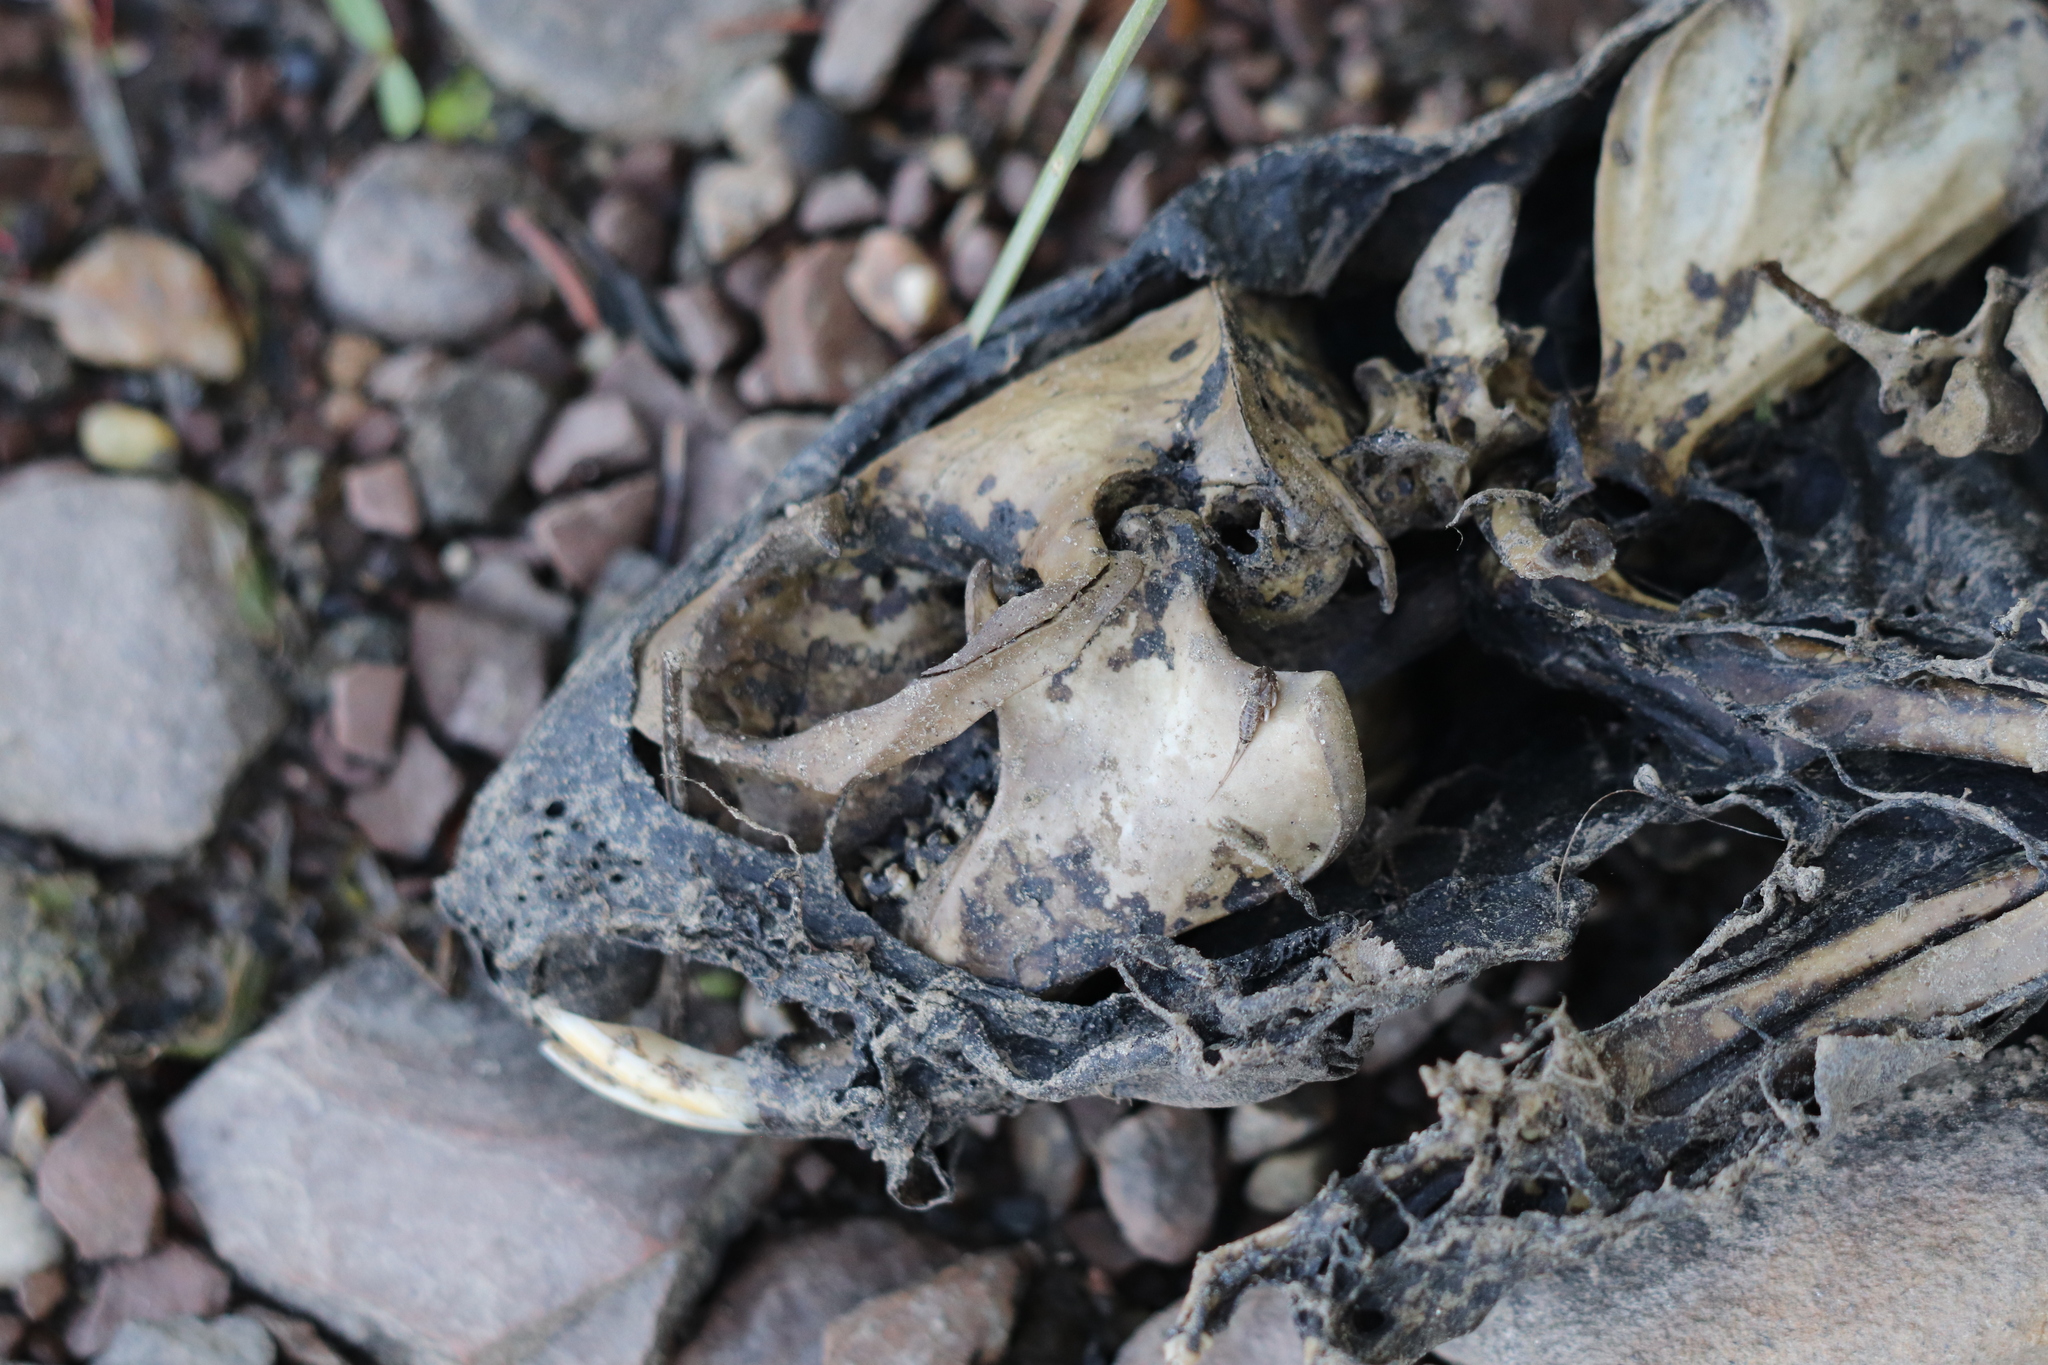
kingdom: Animalia
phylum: Chordata
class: Mammalia
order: Rodentia
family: Cricetidae
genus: Ondatra
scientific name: Ondatra zibethicus
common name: Muskrat
